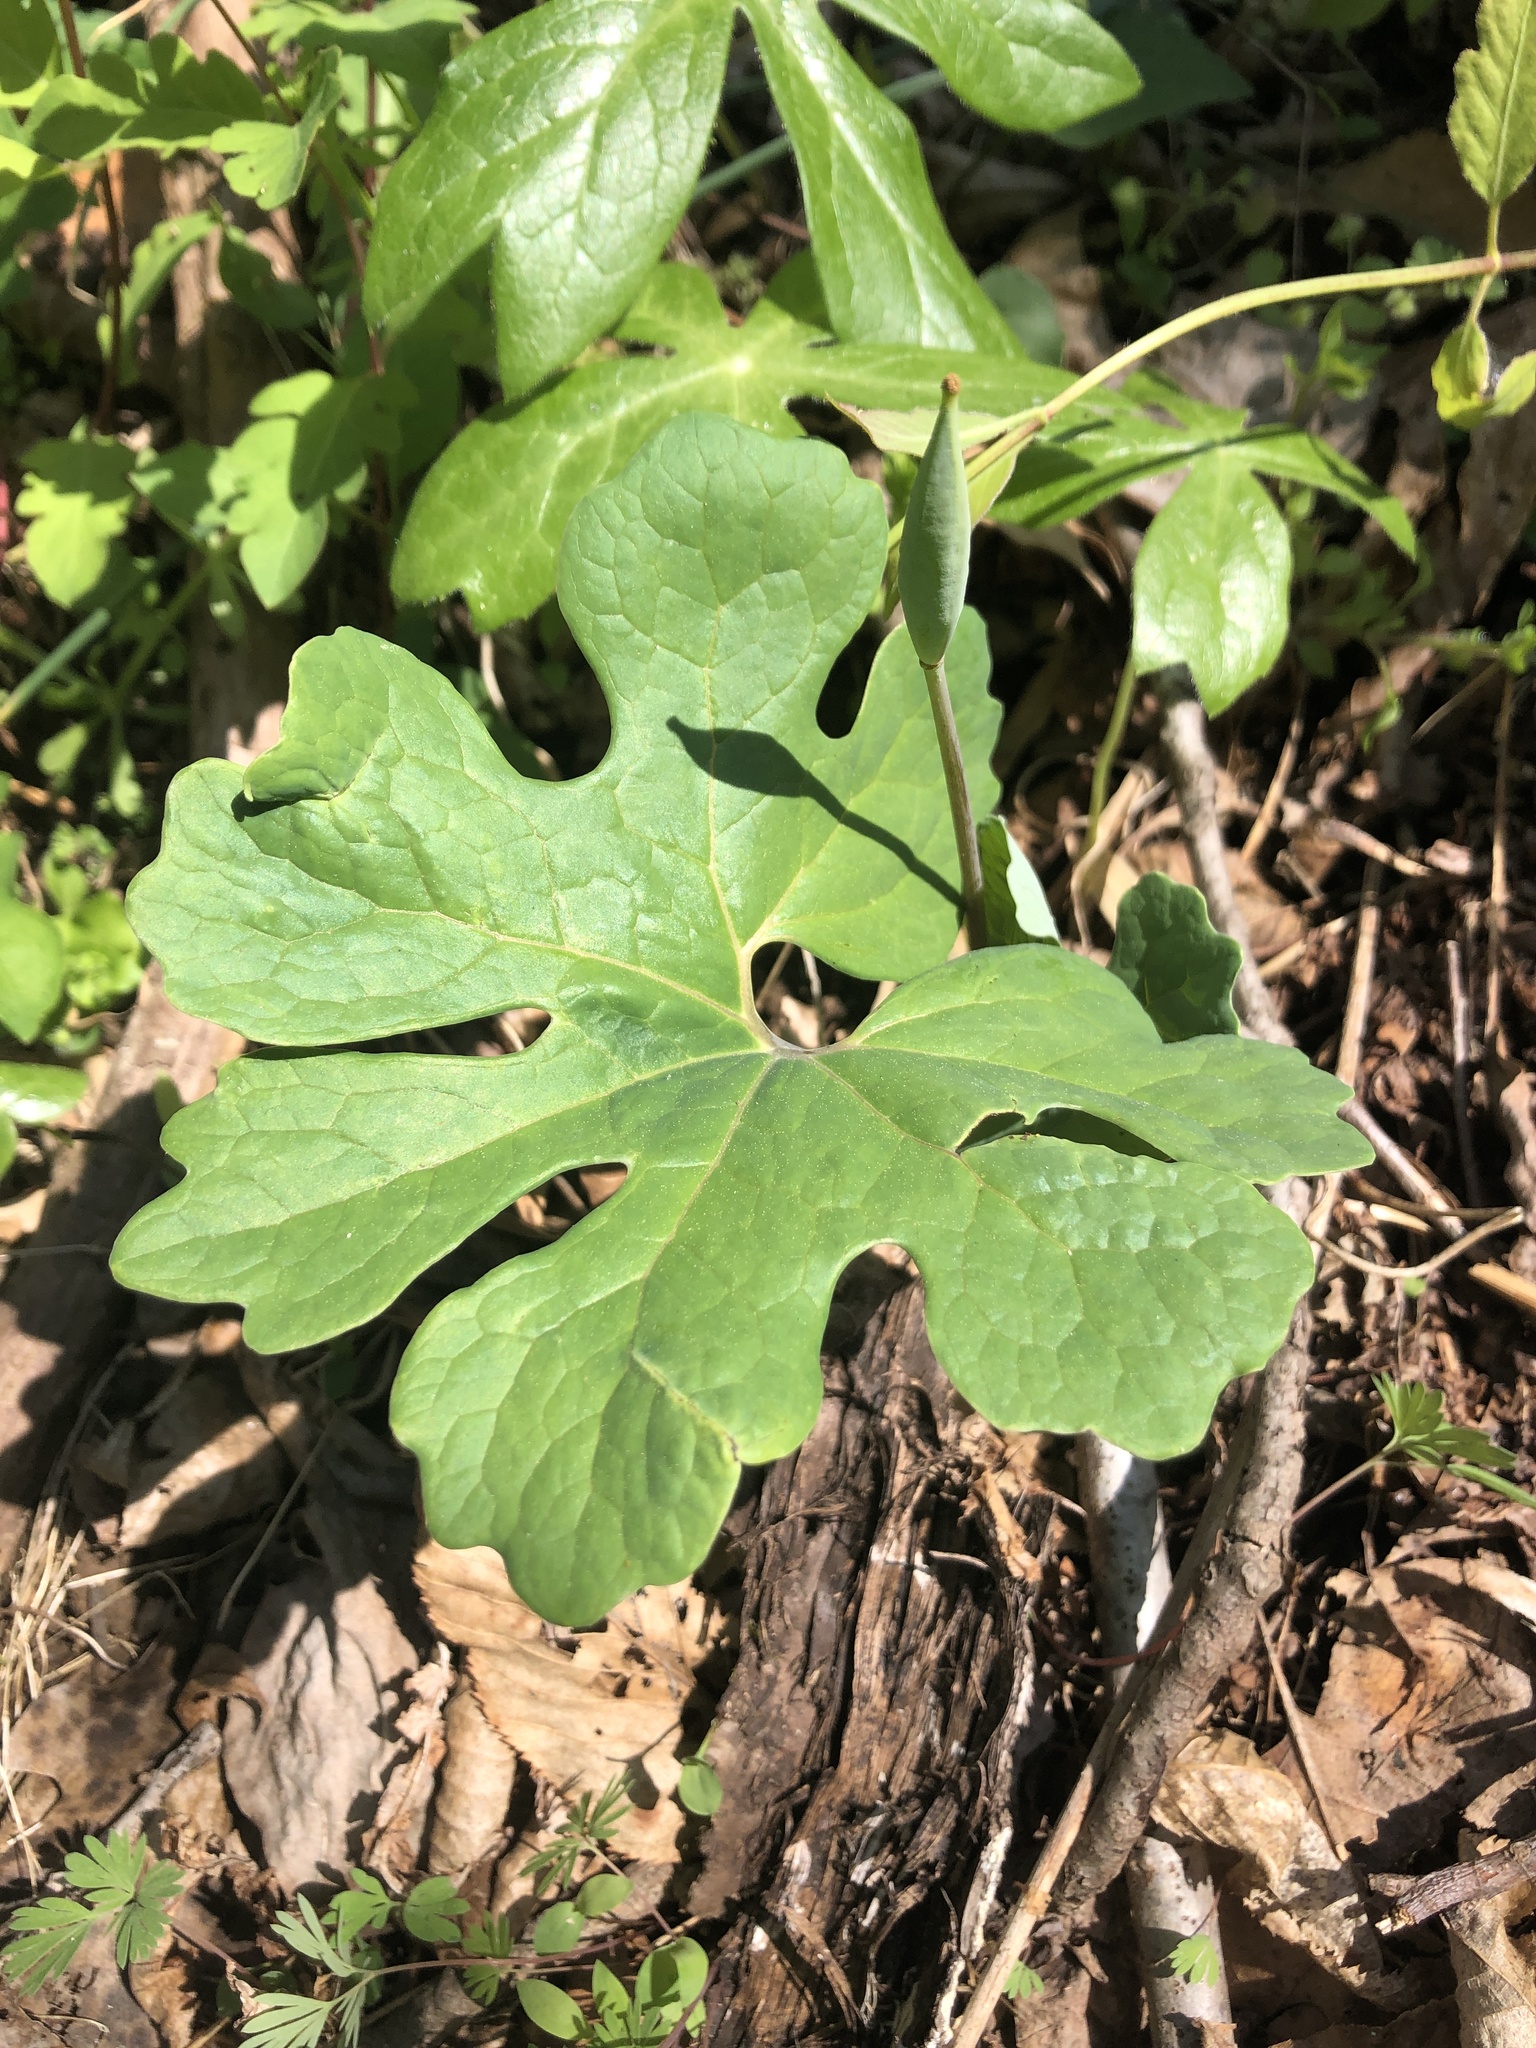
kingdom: Plantae
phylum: Tracheophyta
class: Magnoliopsida
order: Ranunculales
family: Papaveraceae
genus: Sanguinaria
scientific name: Sanguinaria canadensis
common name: Bloodroot
